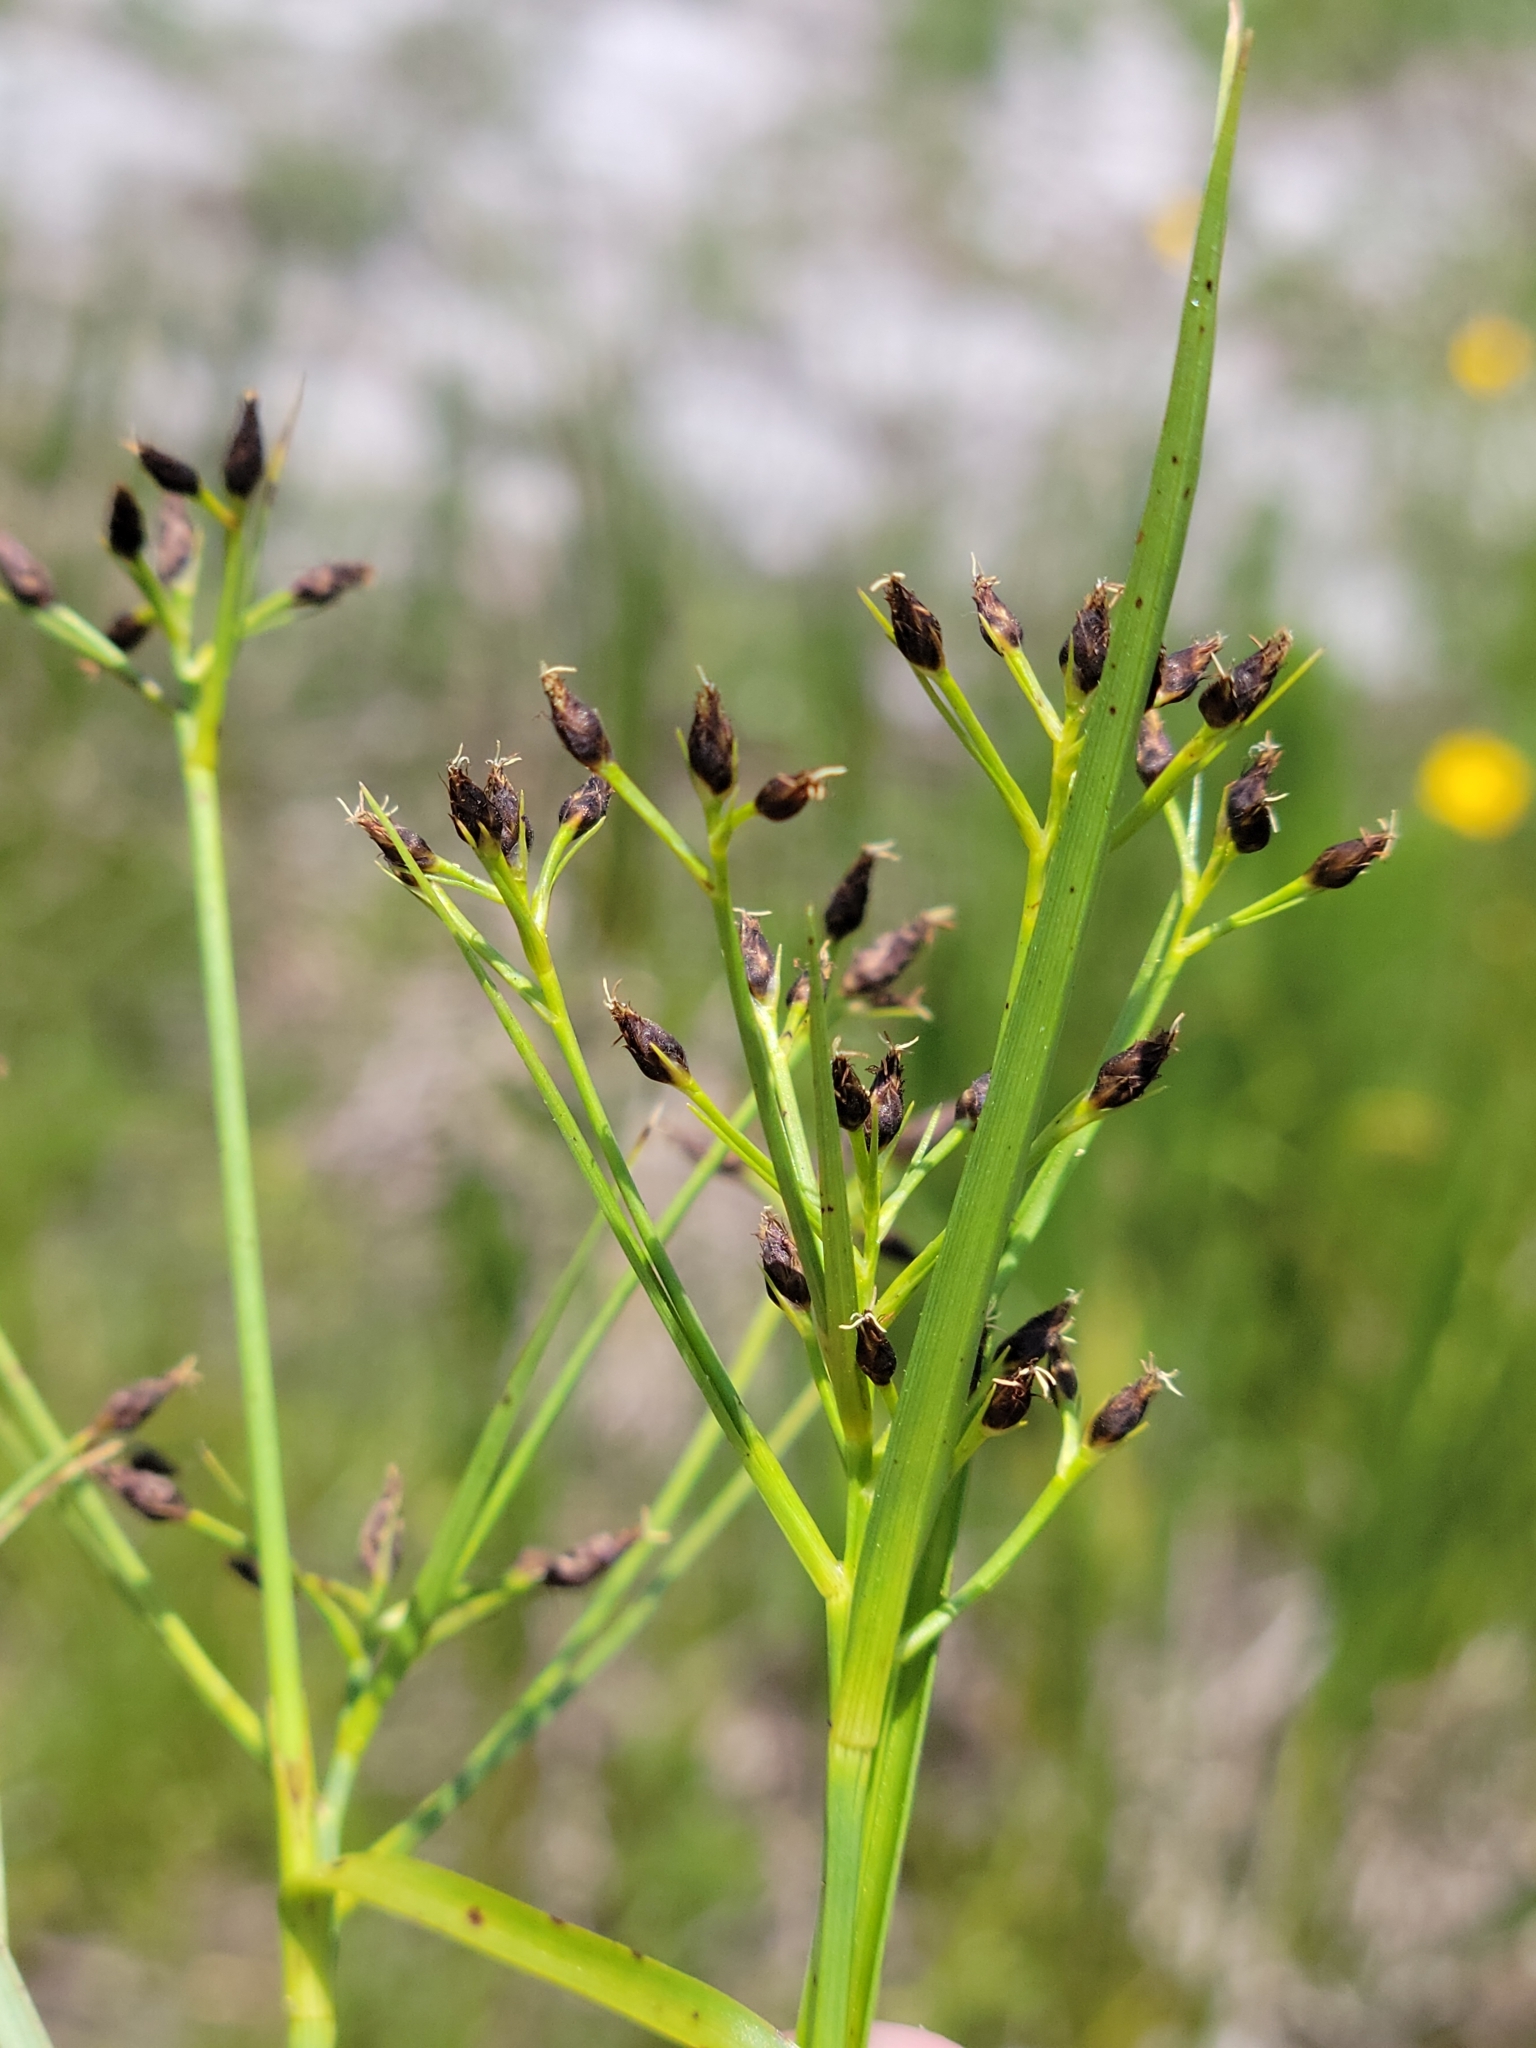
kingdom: Plantae
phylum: Tracheophyta
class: Liliopsida
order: Poales
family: Cyperaceae
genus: Rhynchospora
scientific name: Rhynchospora nitens
